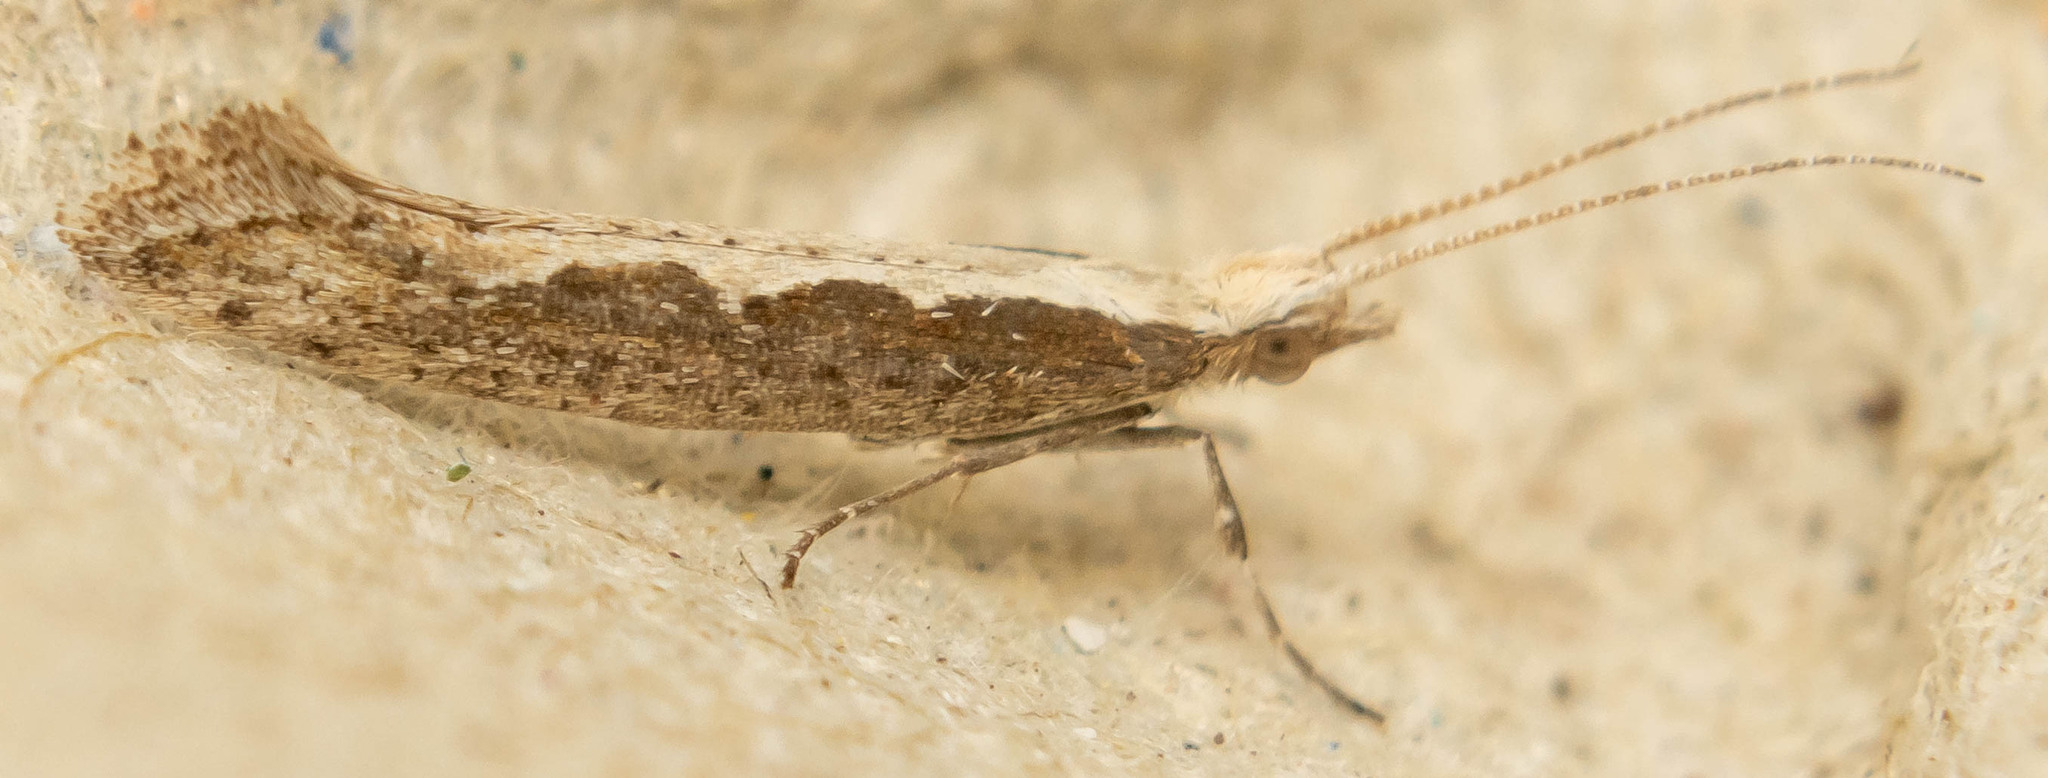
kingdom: Animalia
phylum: Arthropoda
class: Insecta
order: Lepidoptera
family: Plutellidae
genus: Plutella
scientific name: Plutella xylostella
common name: Diamond-back moth
